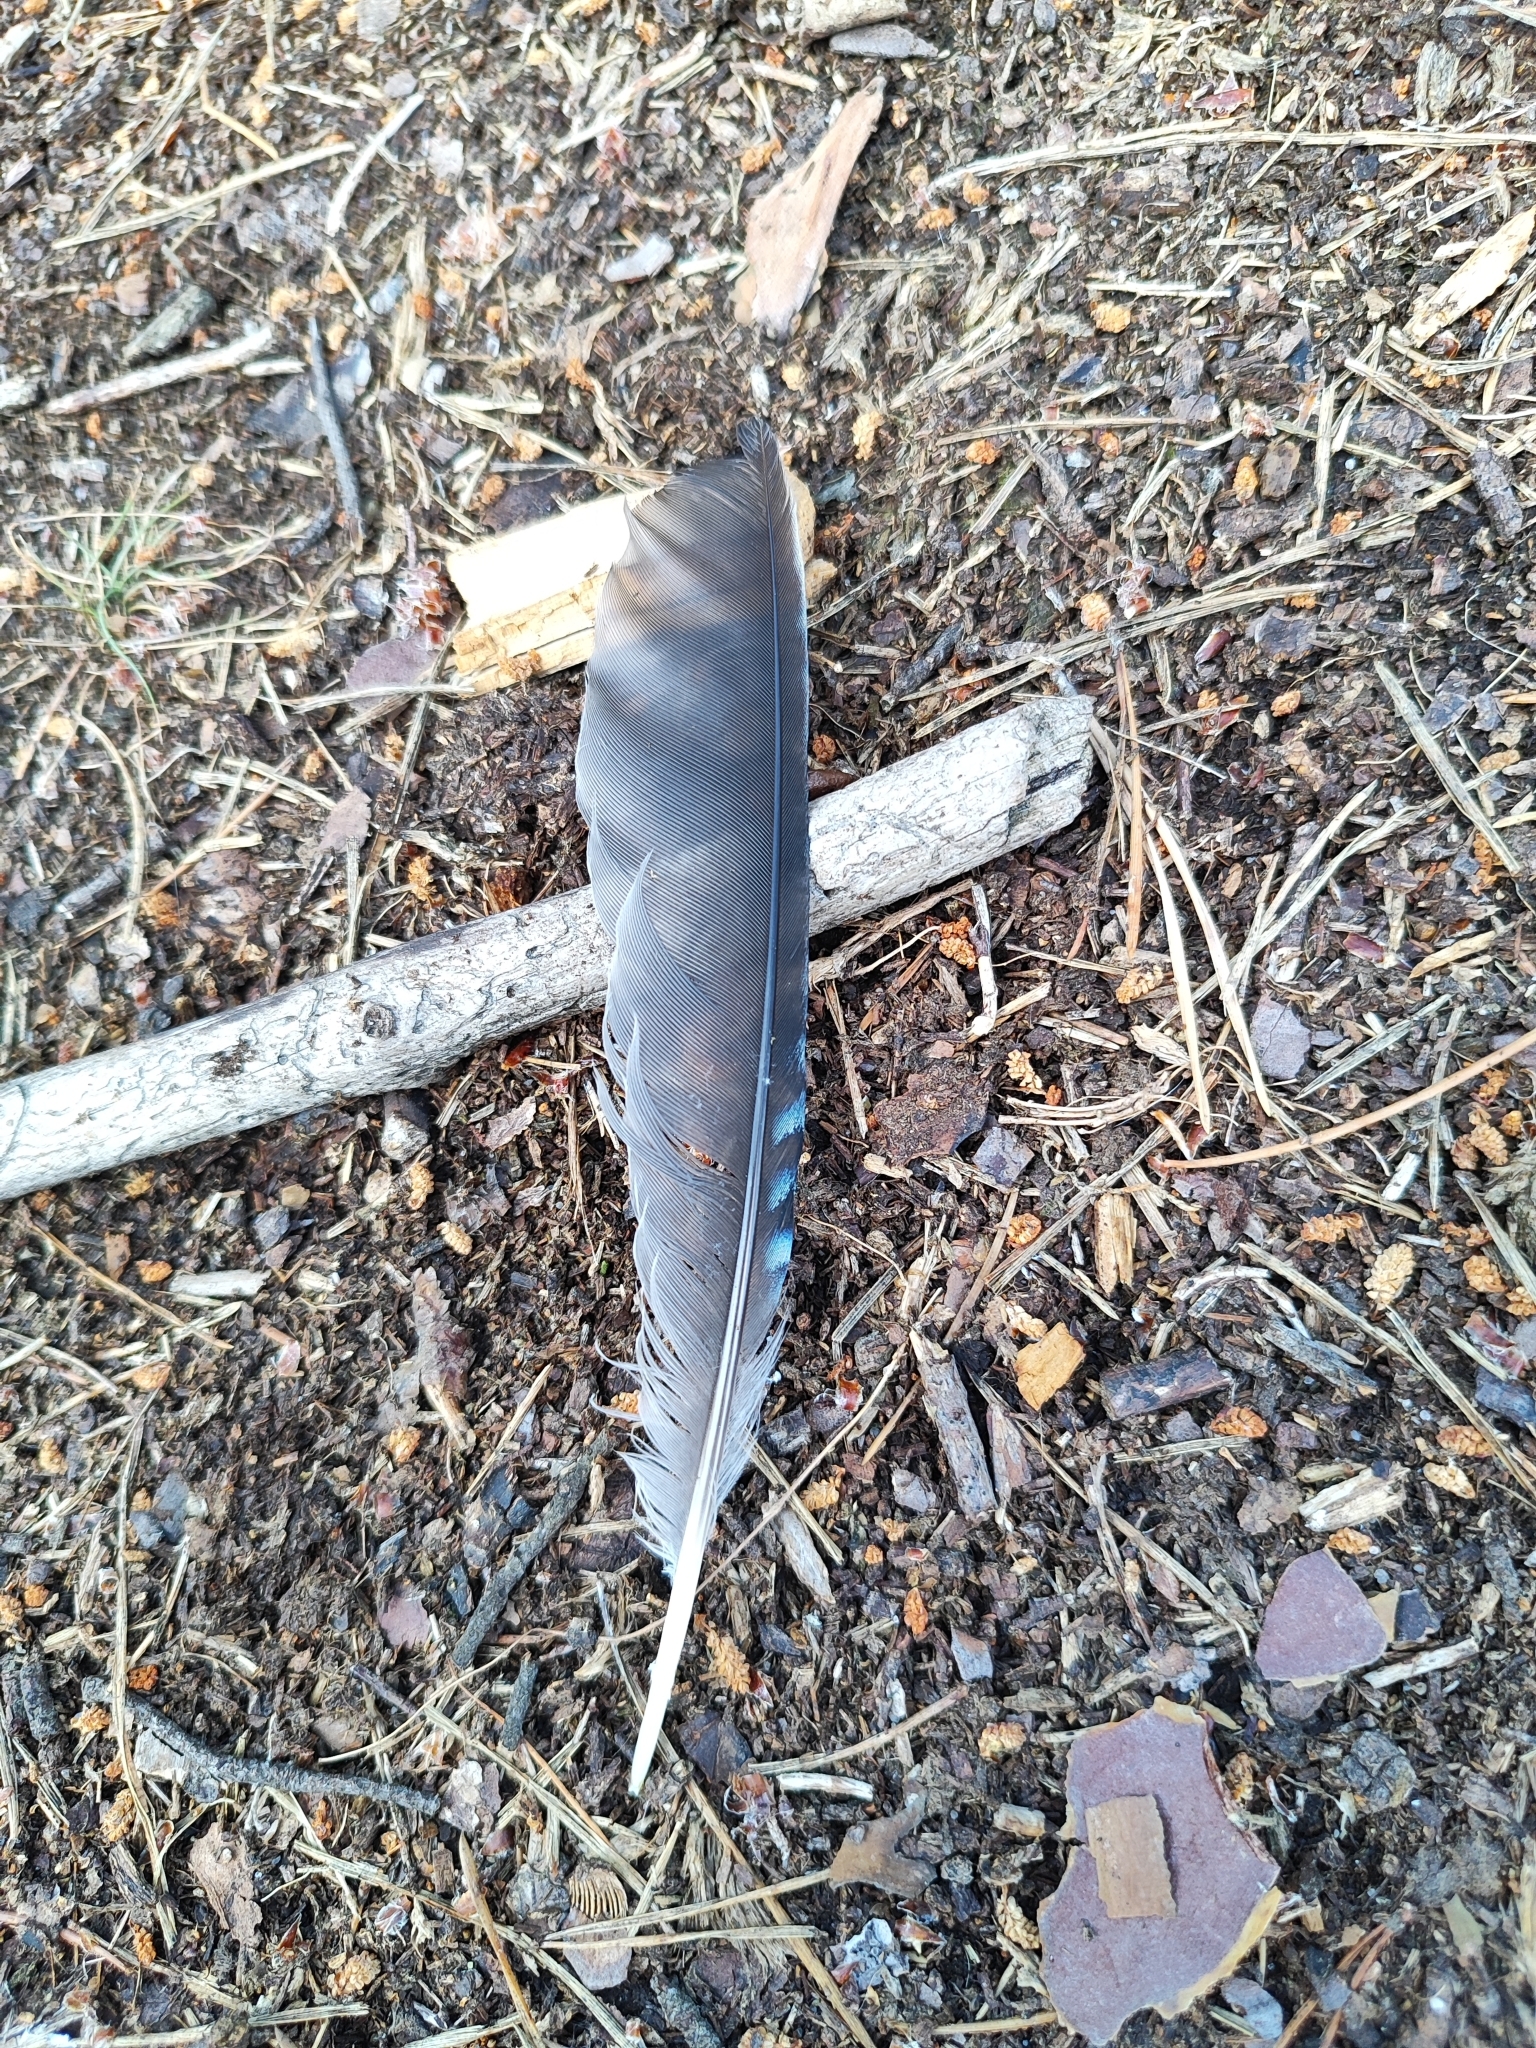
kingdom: Animalia
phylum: Chordata
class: Aves
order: Passeriformes
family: Corvidae
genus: Garrulus
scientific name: Garrulus glandarius
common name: Eurasian jay
